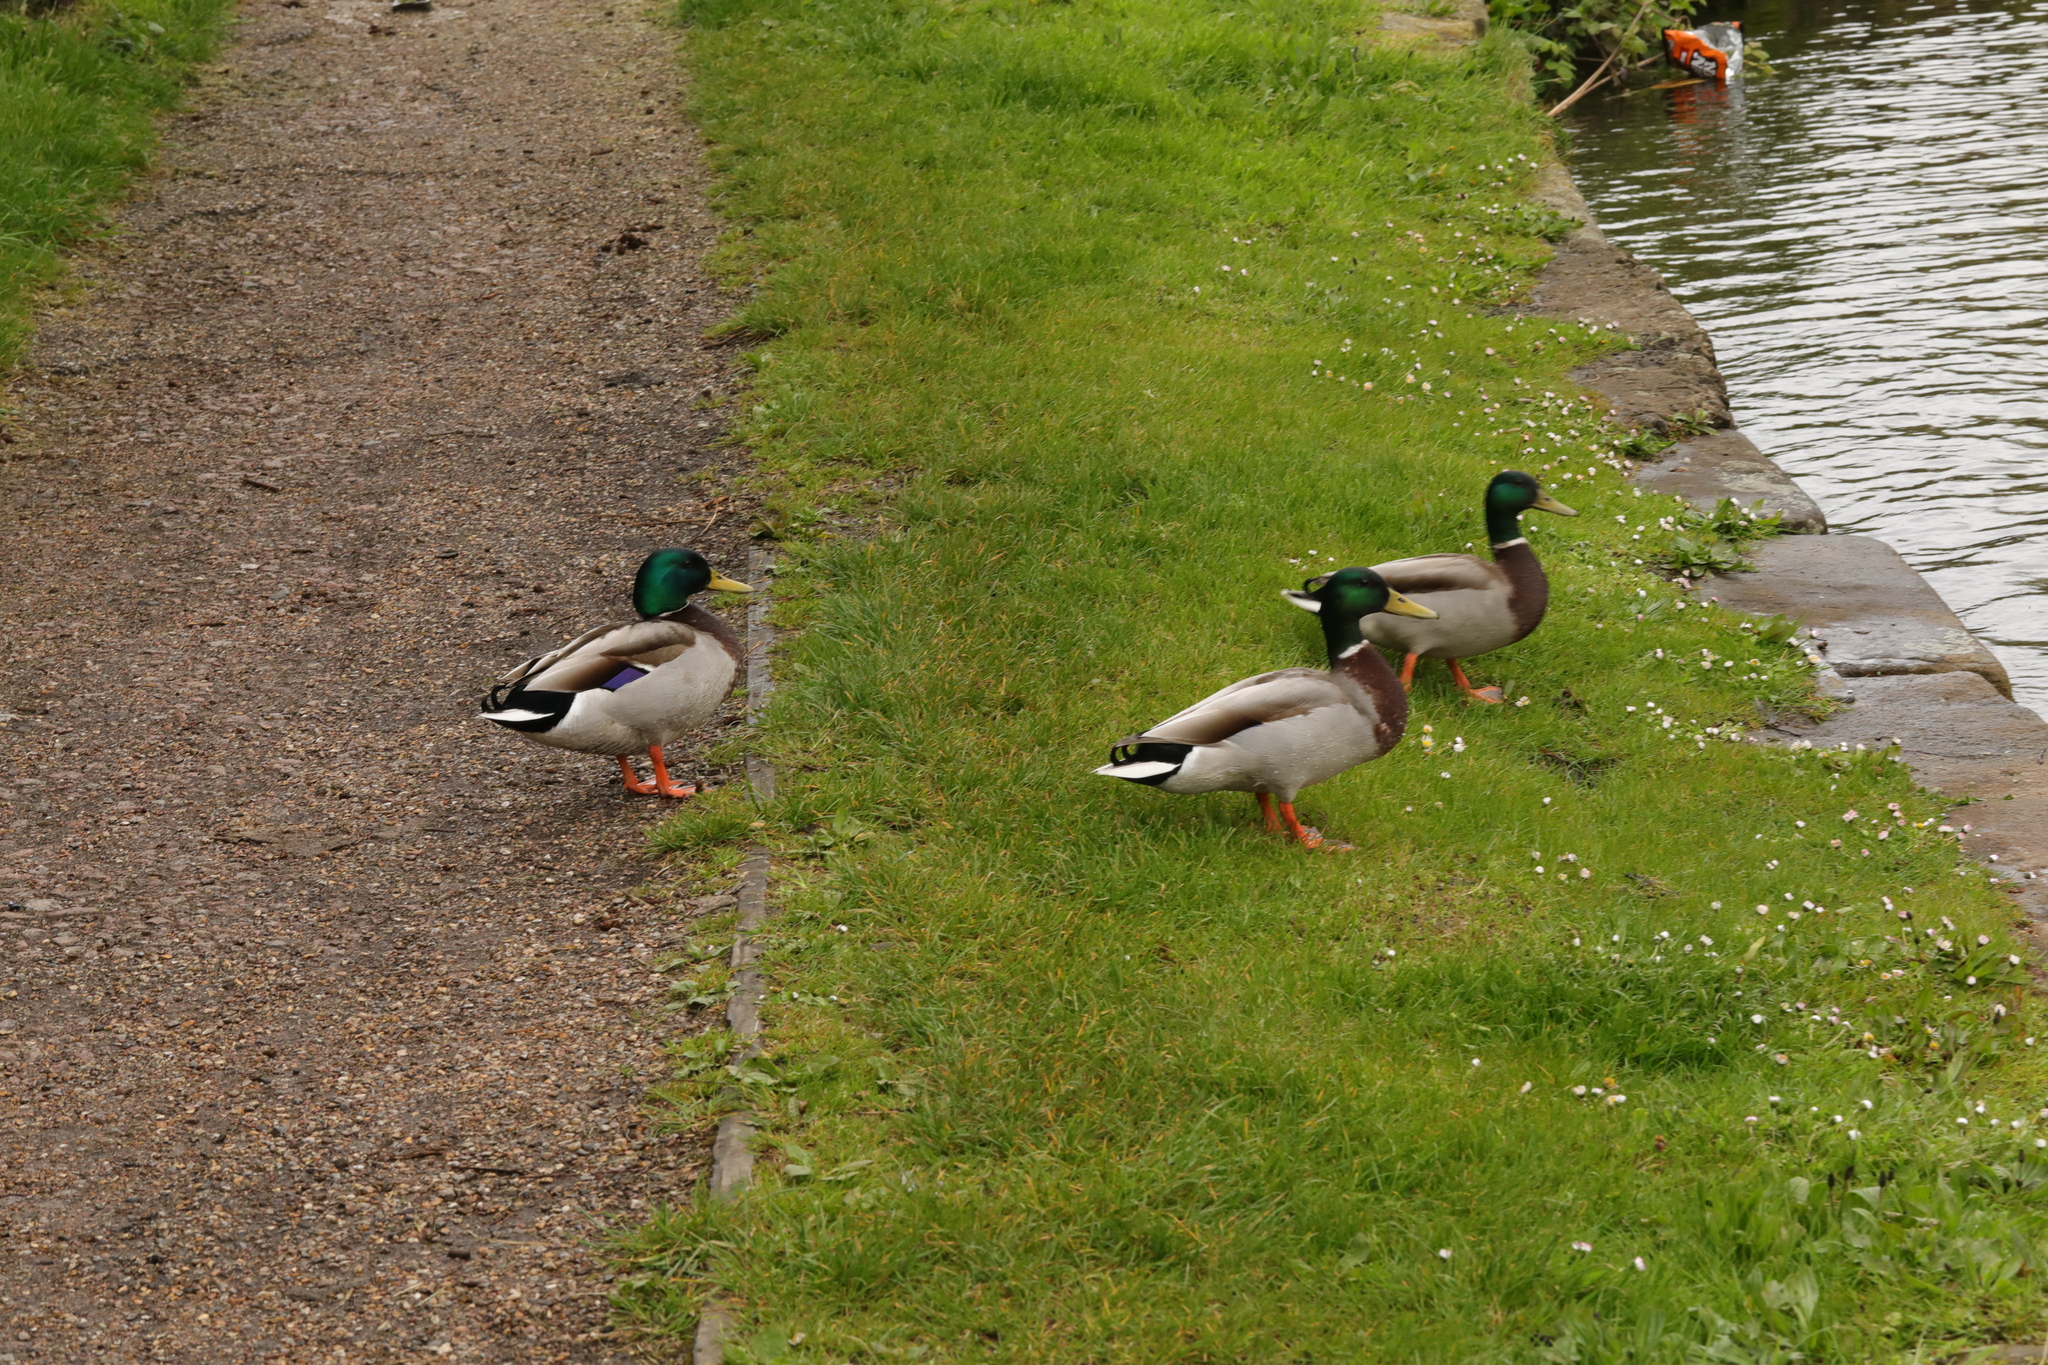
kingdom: Animalia
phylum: Chordata
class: Aves
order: Anseriformes
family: Anatidae
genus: Anas
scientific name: Anas platyrhynchos
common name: Mallard
